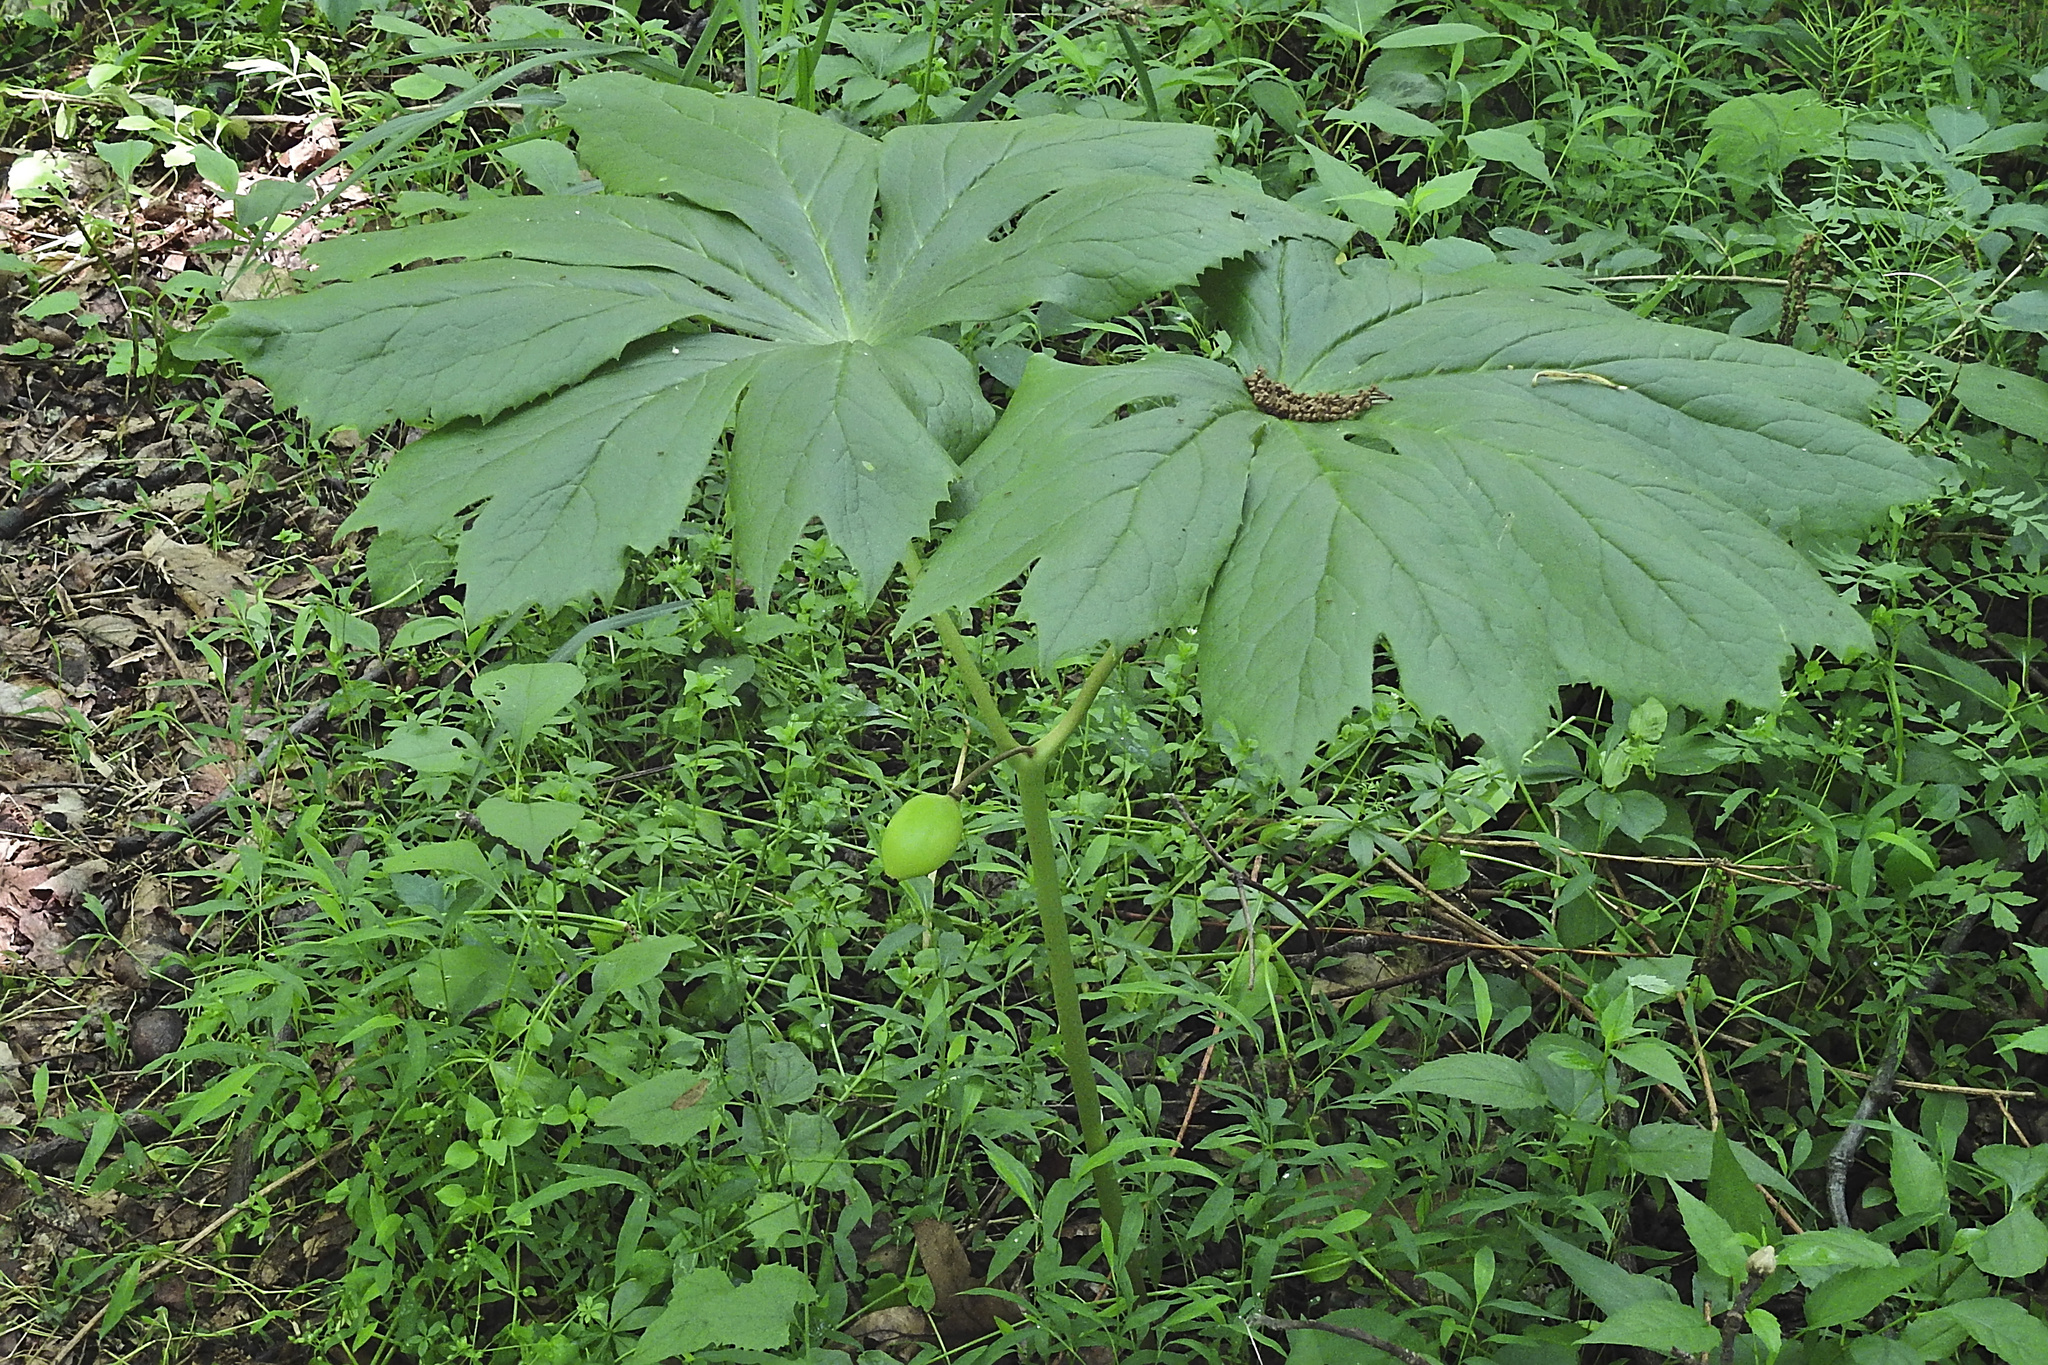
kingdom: Plantae
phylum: Tracheophyta
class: Magnoliopsida
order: Ranunculales
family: Berberidaceae
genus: Podophyllum
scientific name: Podophyllum peltatum
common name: Wild mandrake
